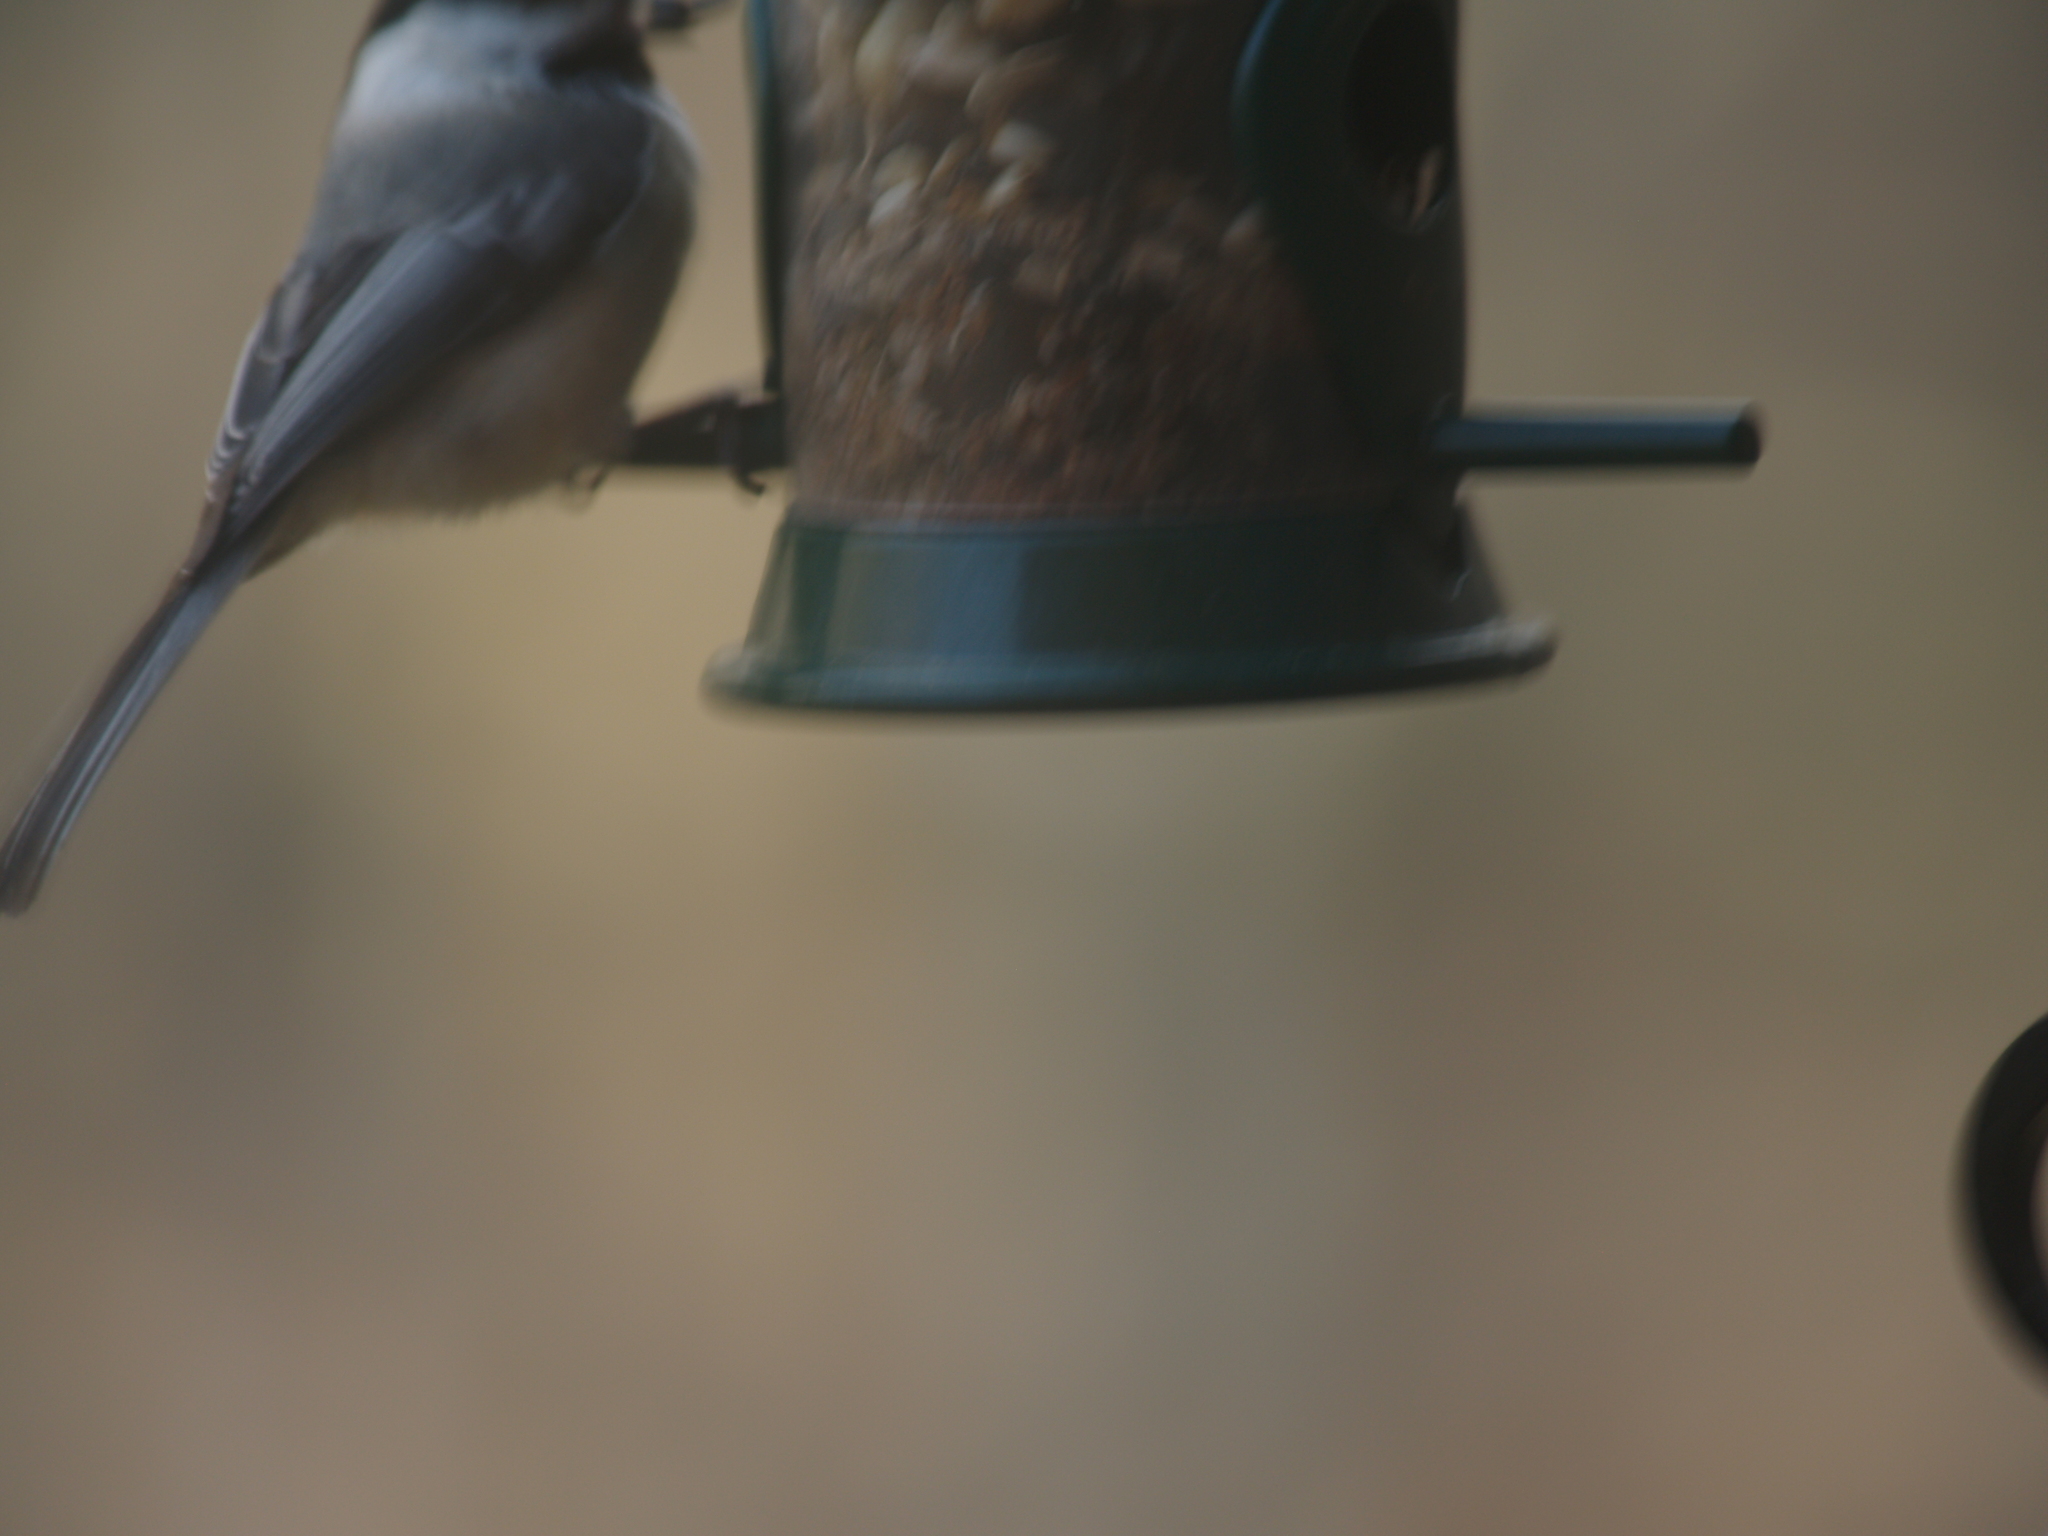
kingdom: Animalia
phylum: Chordata
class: Aves
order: Passeriformes
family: Paridae
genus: Poecile
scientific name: Poecile atricapillus
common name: Black-capped chickadee
